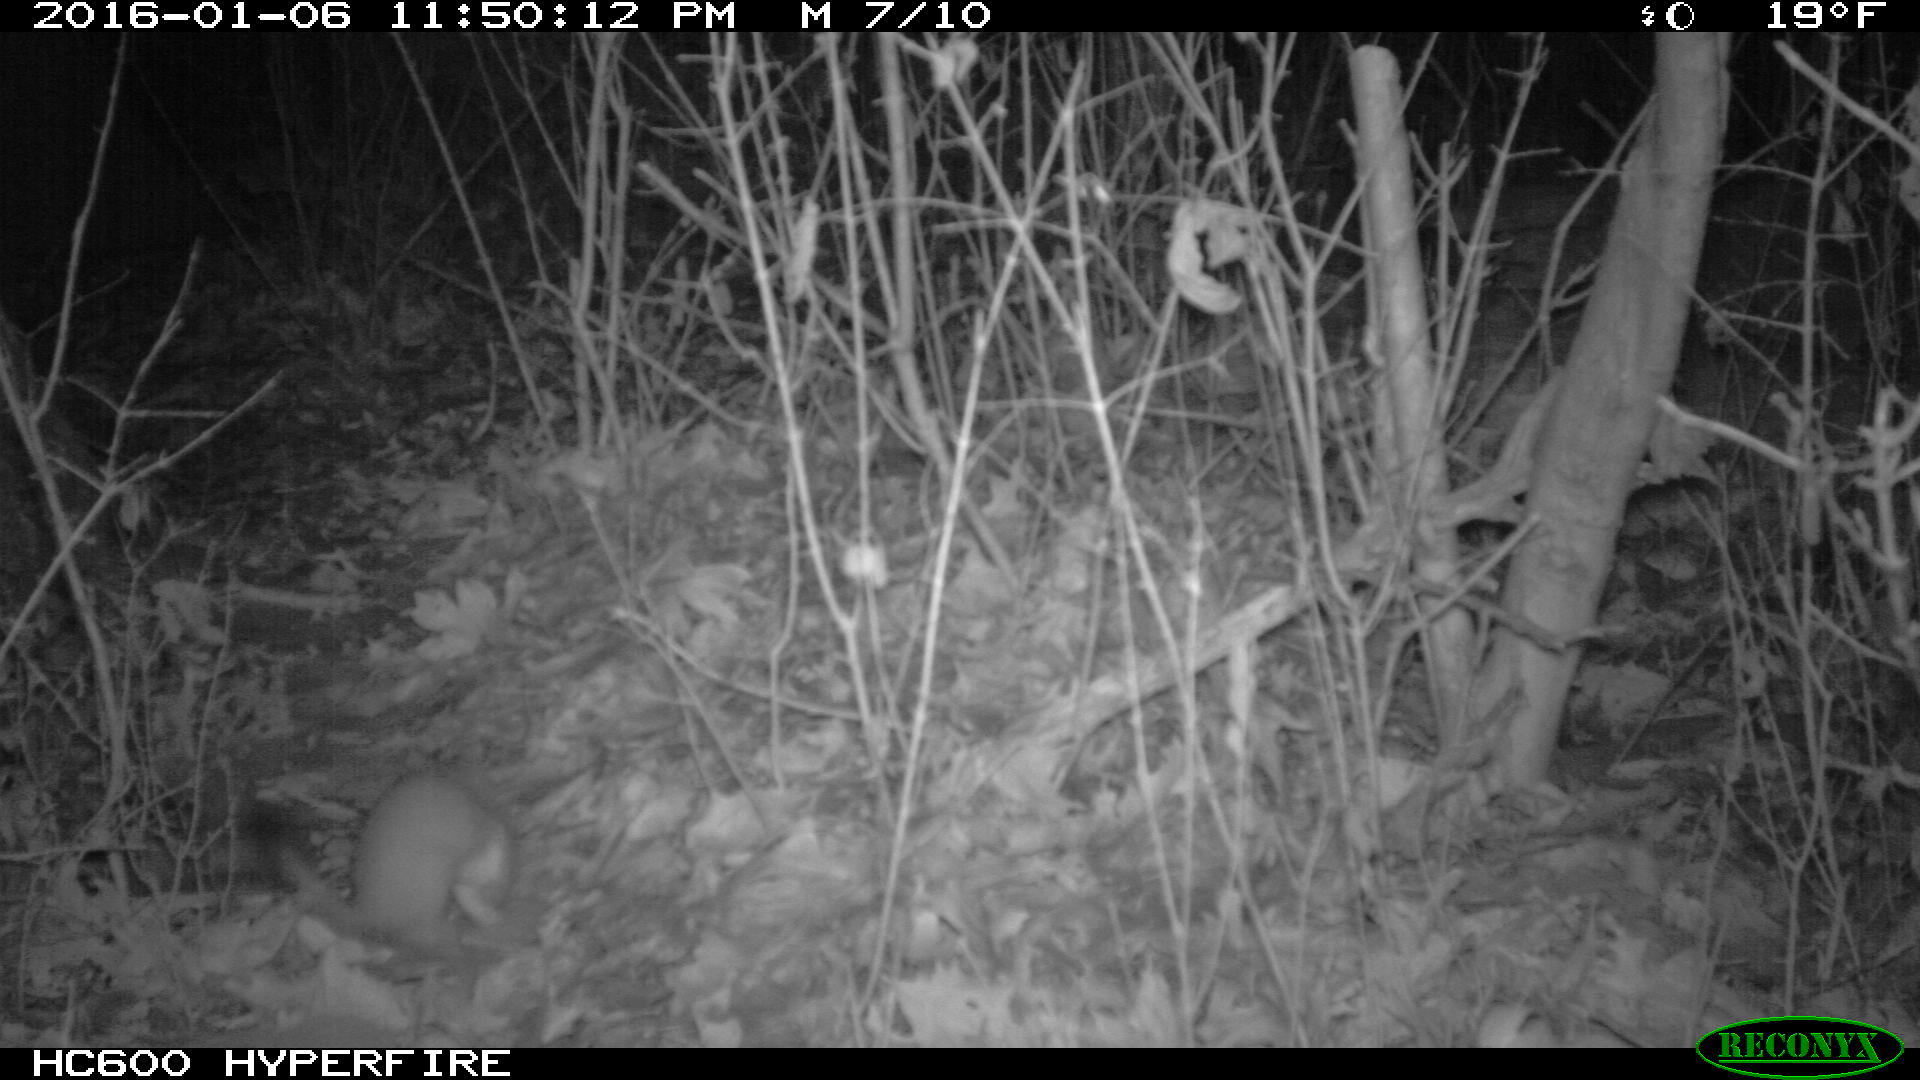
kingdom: Animalia
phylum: Chordata
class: Mammalia
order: Carnivora
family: Mustelidae
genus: Mustela
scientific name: Mustela
